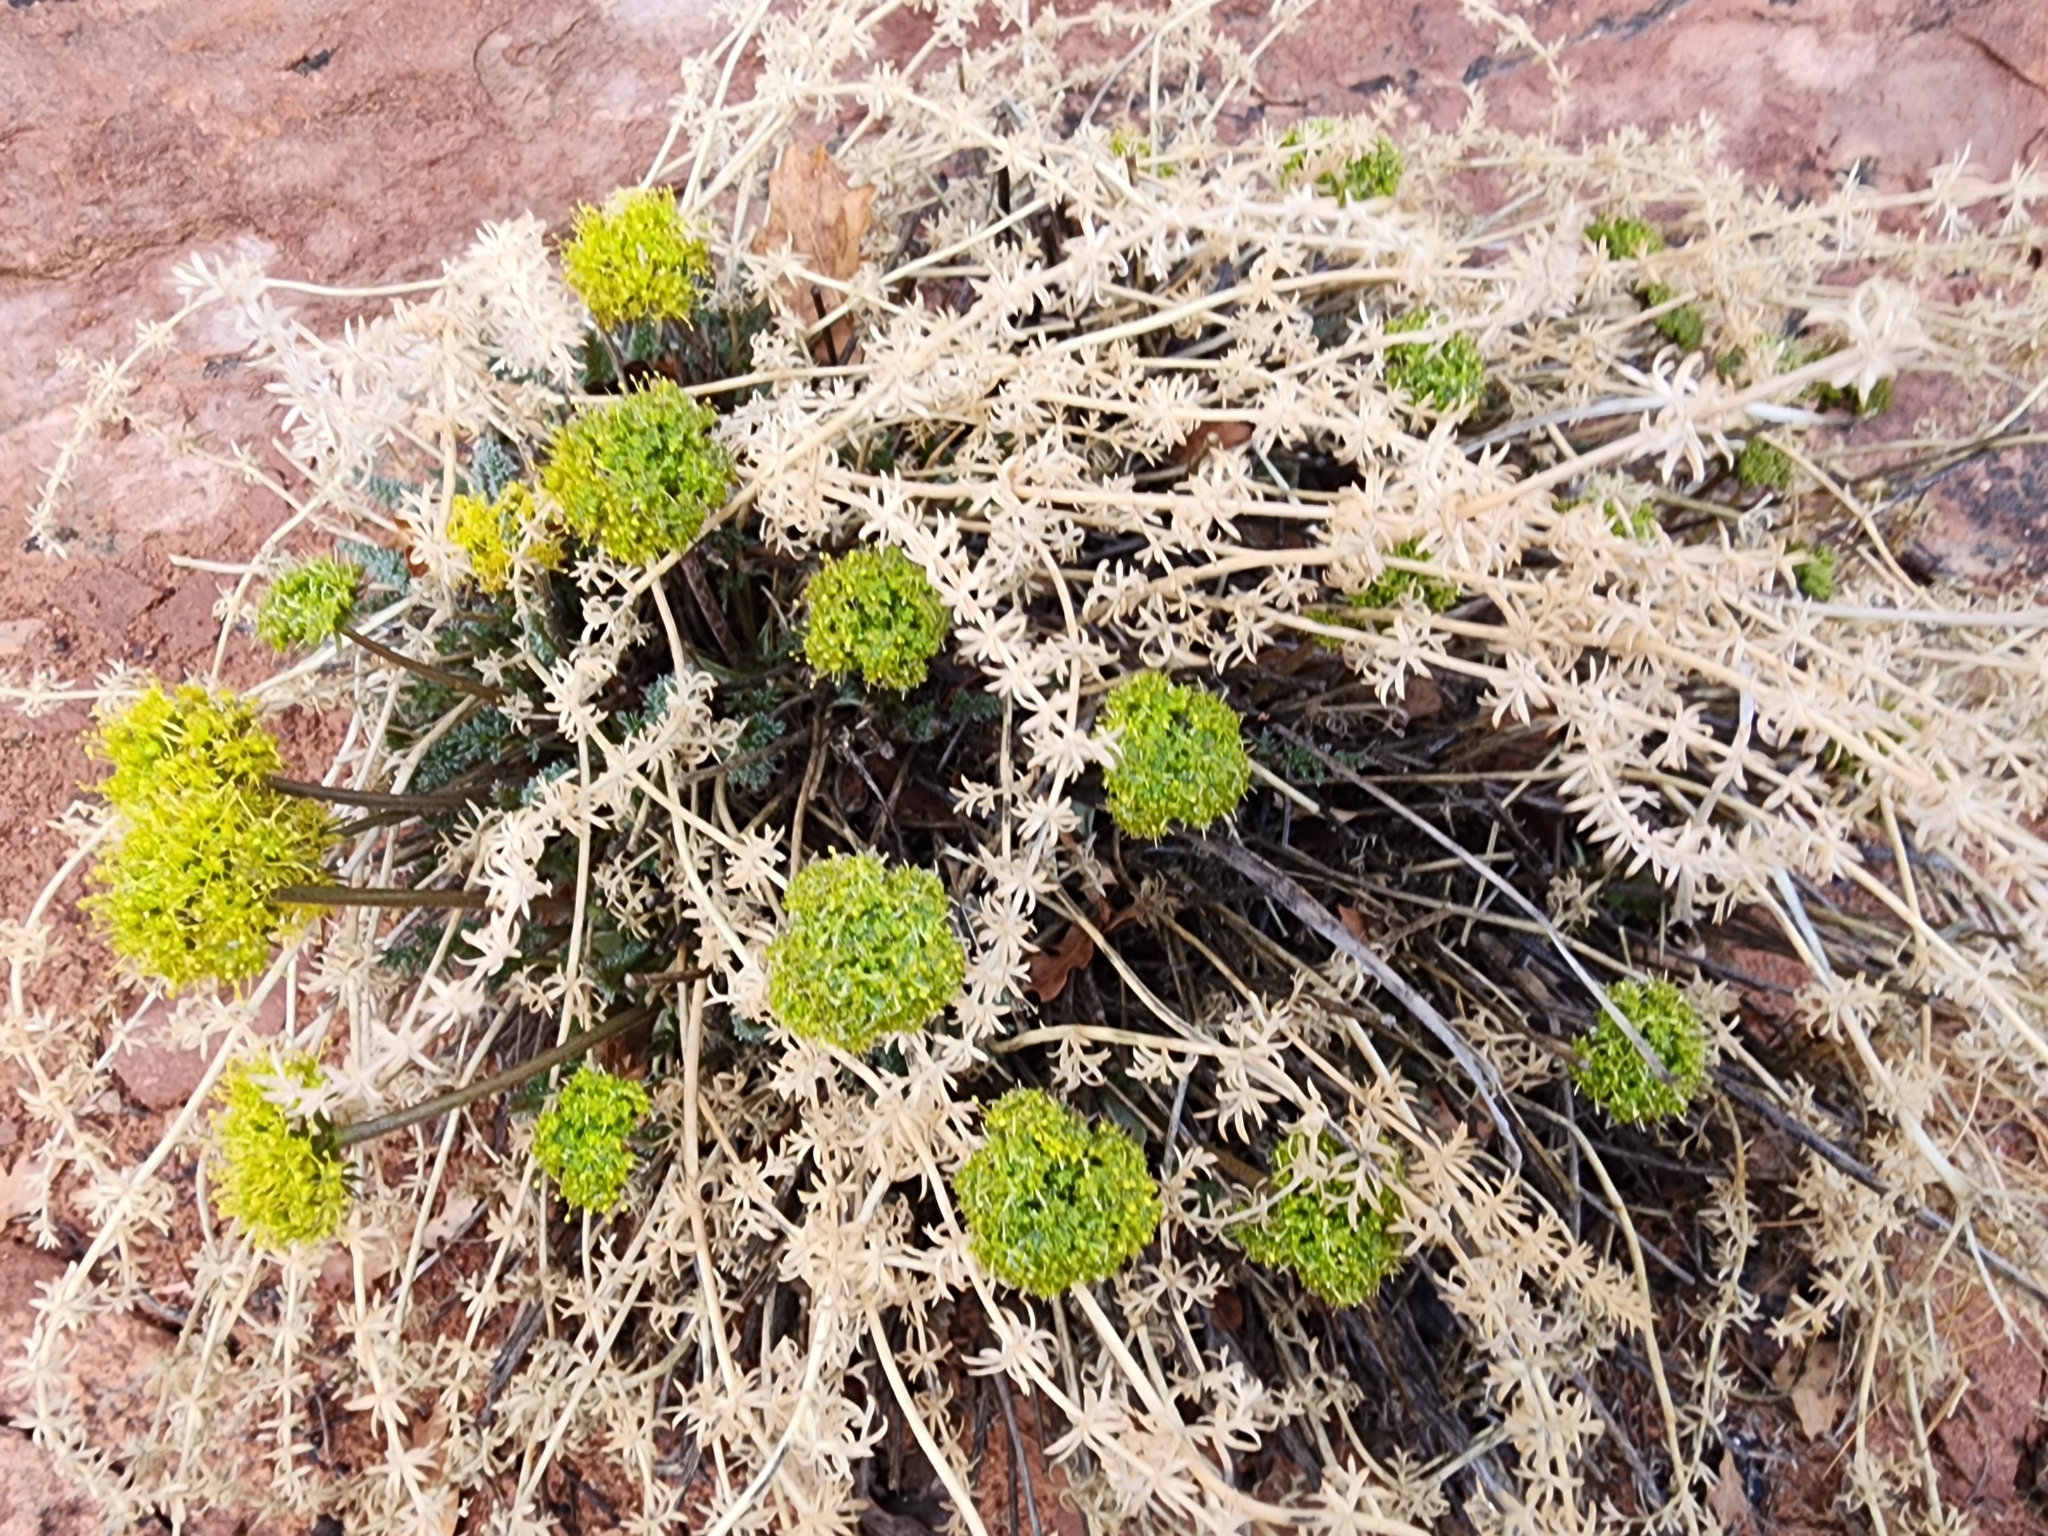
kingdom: Plantae
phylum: Tracheophyta
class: Magnoliopsida
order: Apiales
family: Apiaceae
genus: Lomatium
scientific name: Lomatium parryi
